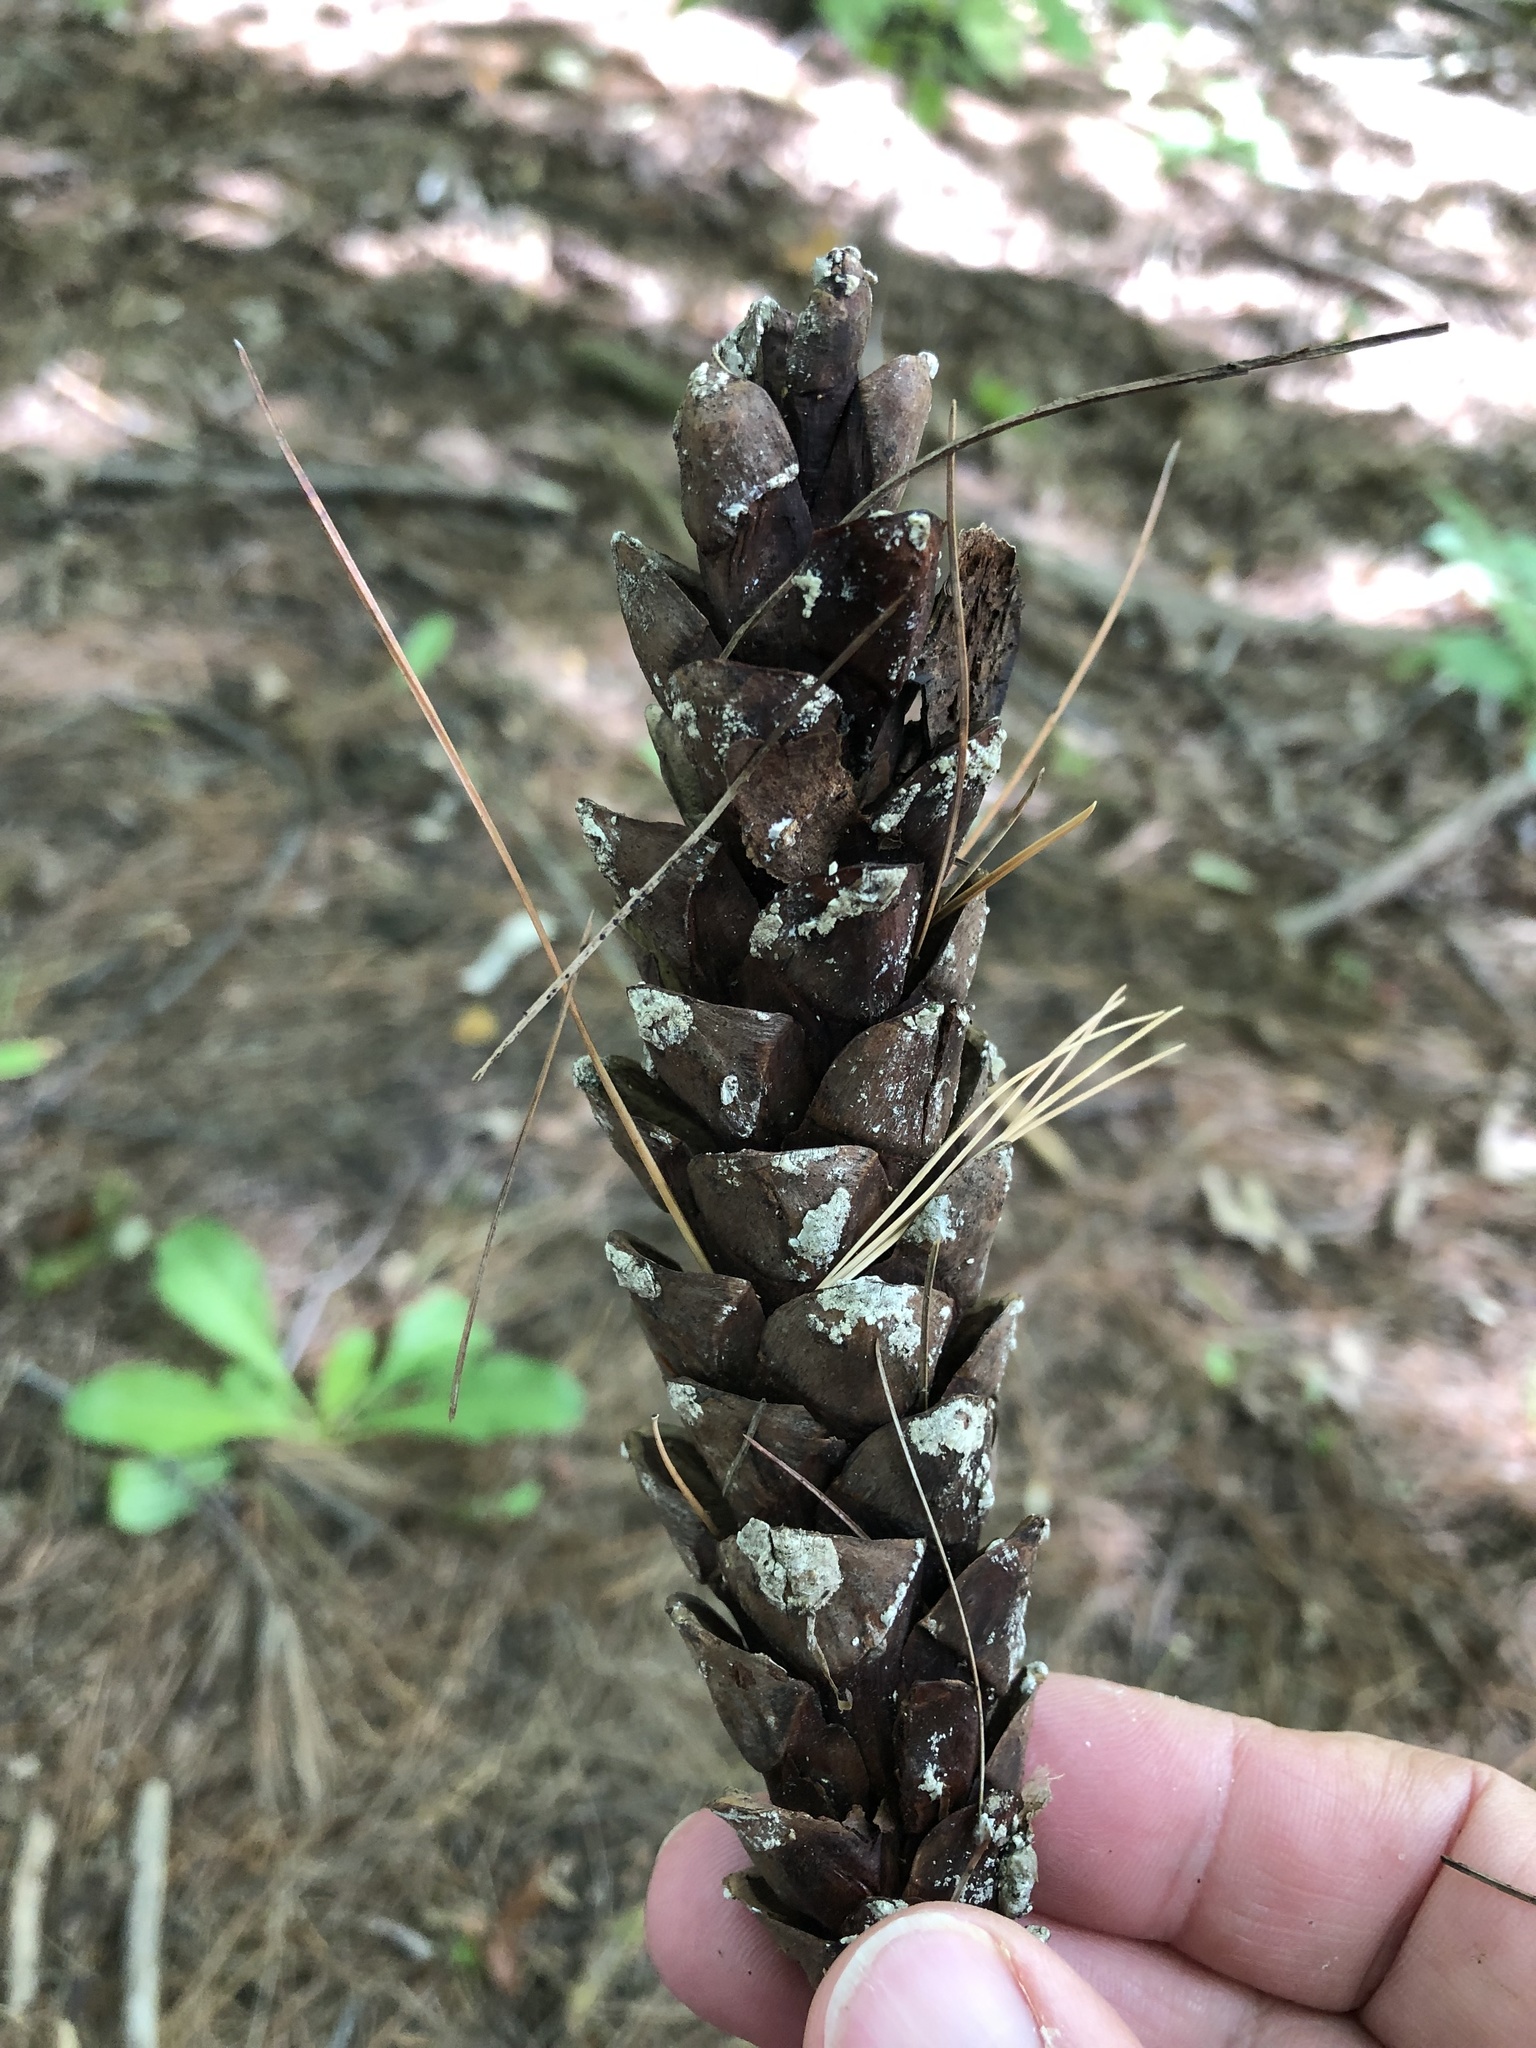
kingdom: Plantae
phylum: Tracheophyta
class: Pinopsida
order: Pinales
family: Pinaceae
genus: Pinus
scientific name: Pinus strobus
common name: Weymouth pine
